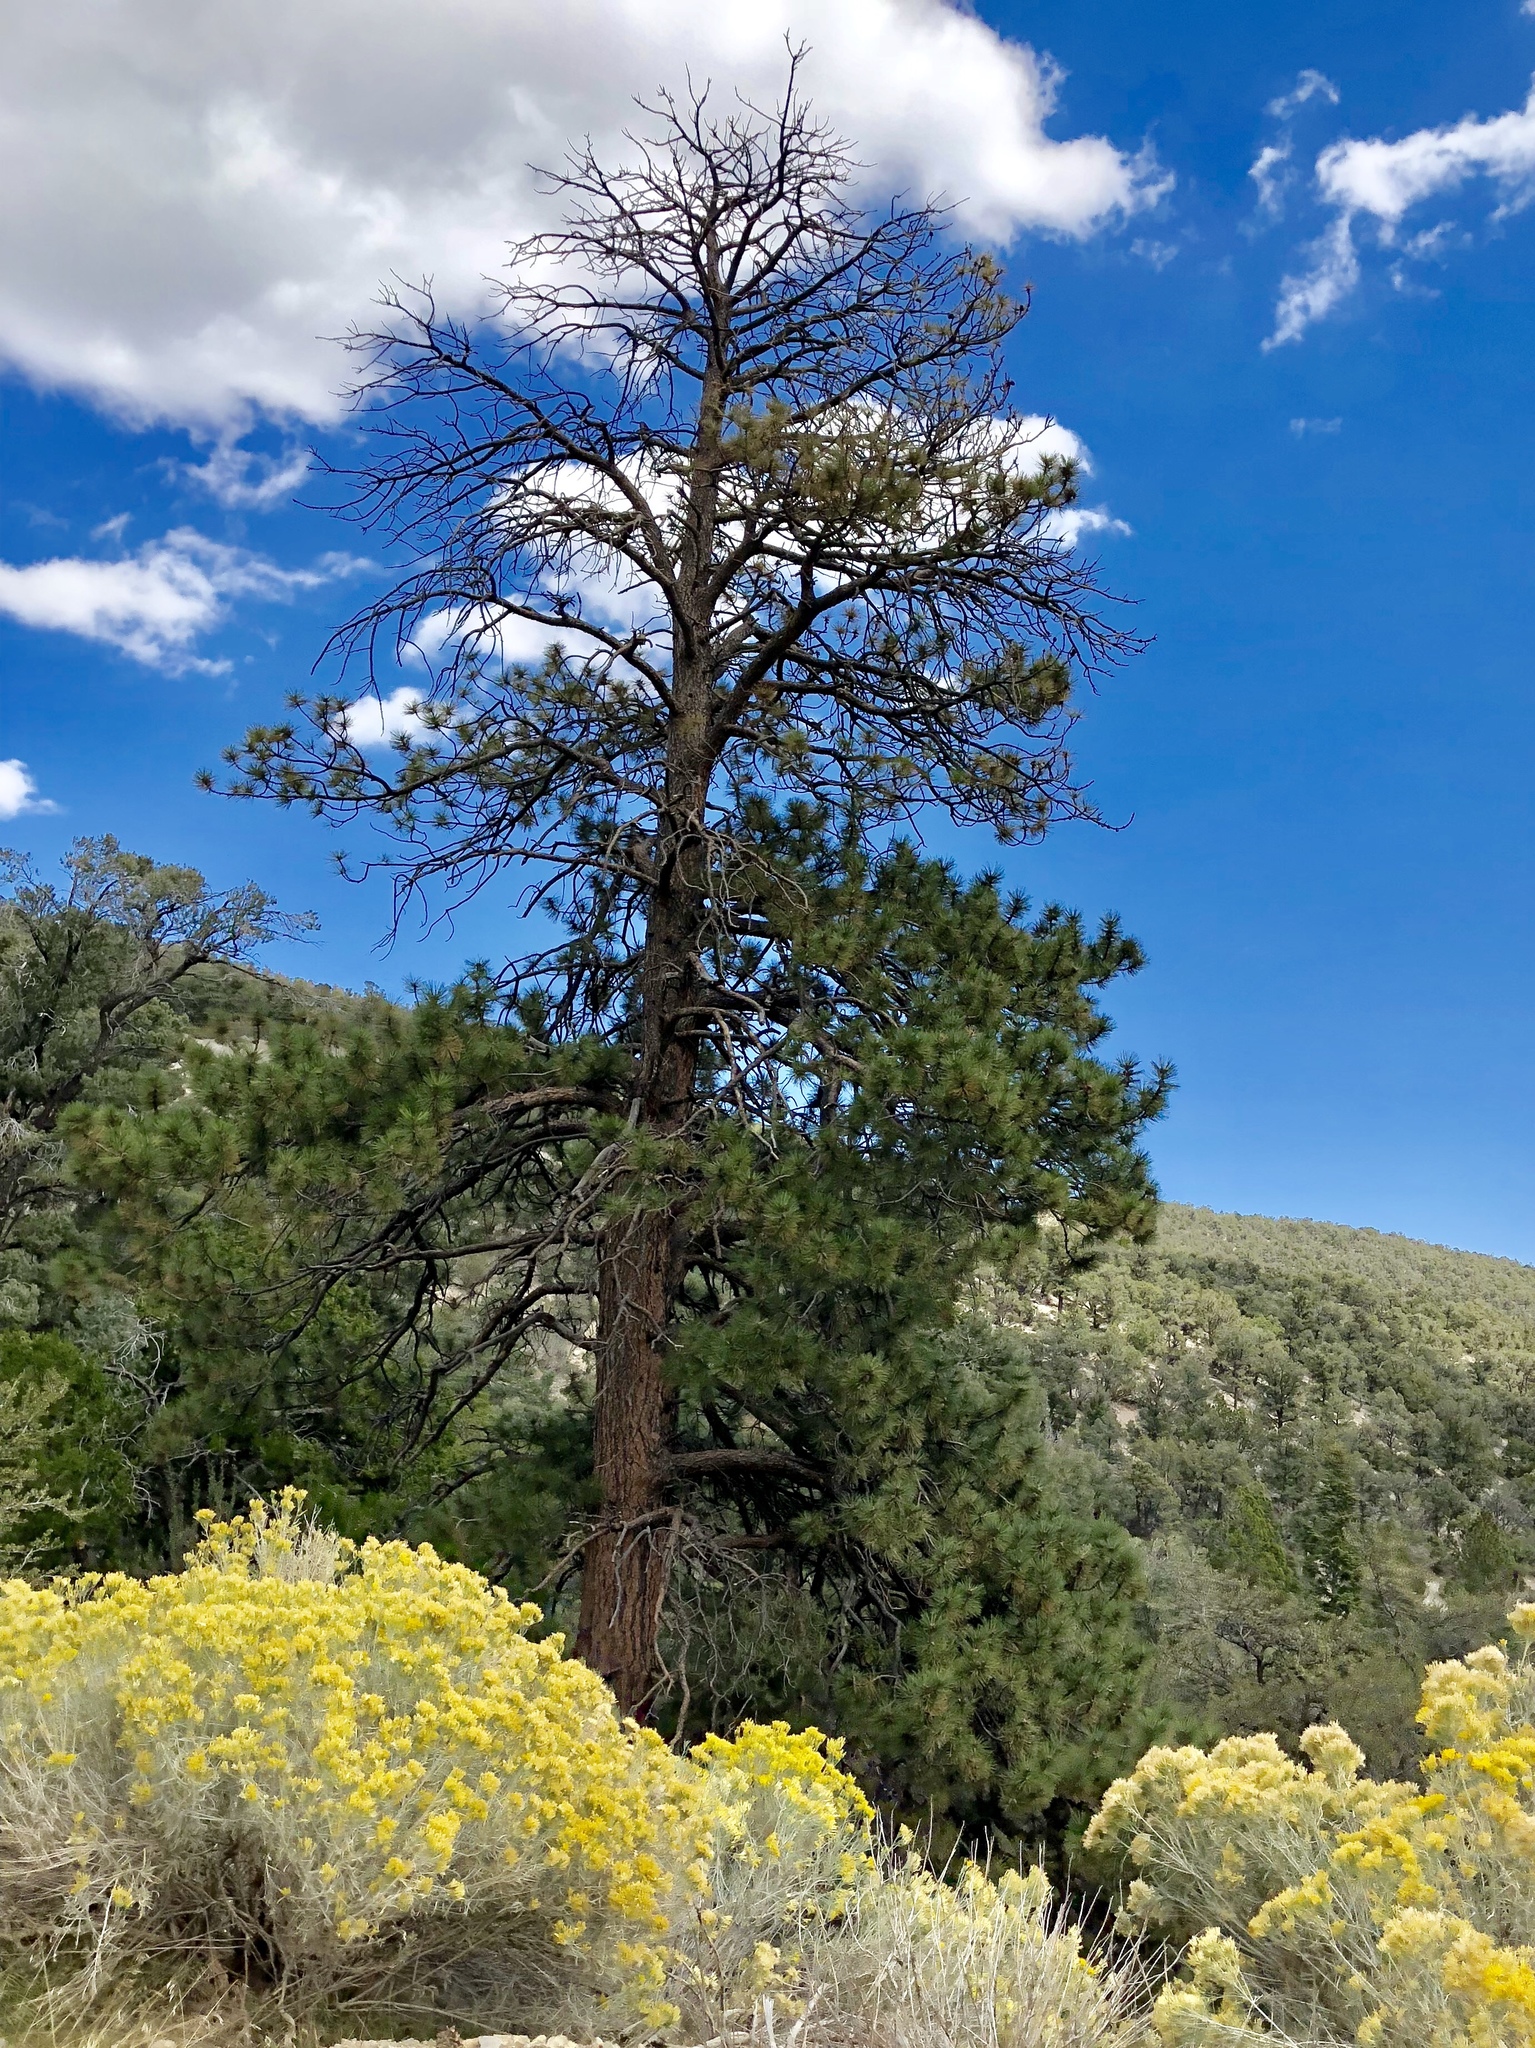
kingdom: Plantae
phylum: Tracheophyta
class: Pinopsida
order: Pinales
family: Pinaceae
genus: Pinus
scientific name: Pinus ponderosa
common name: Western yellow-pine
